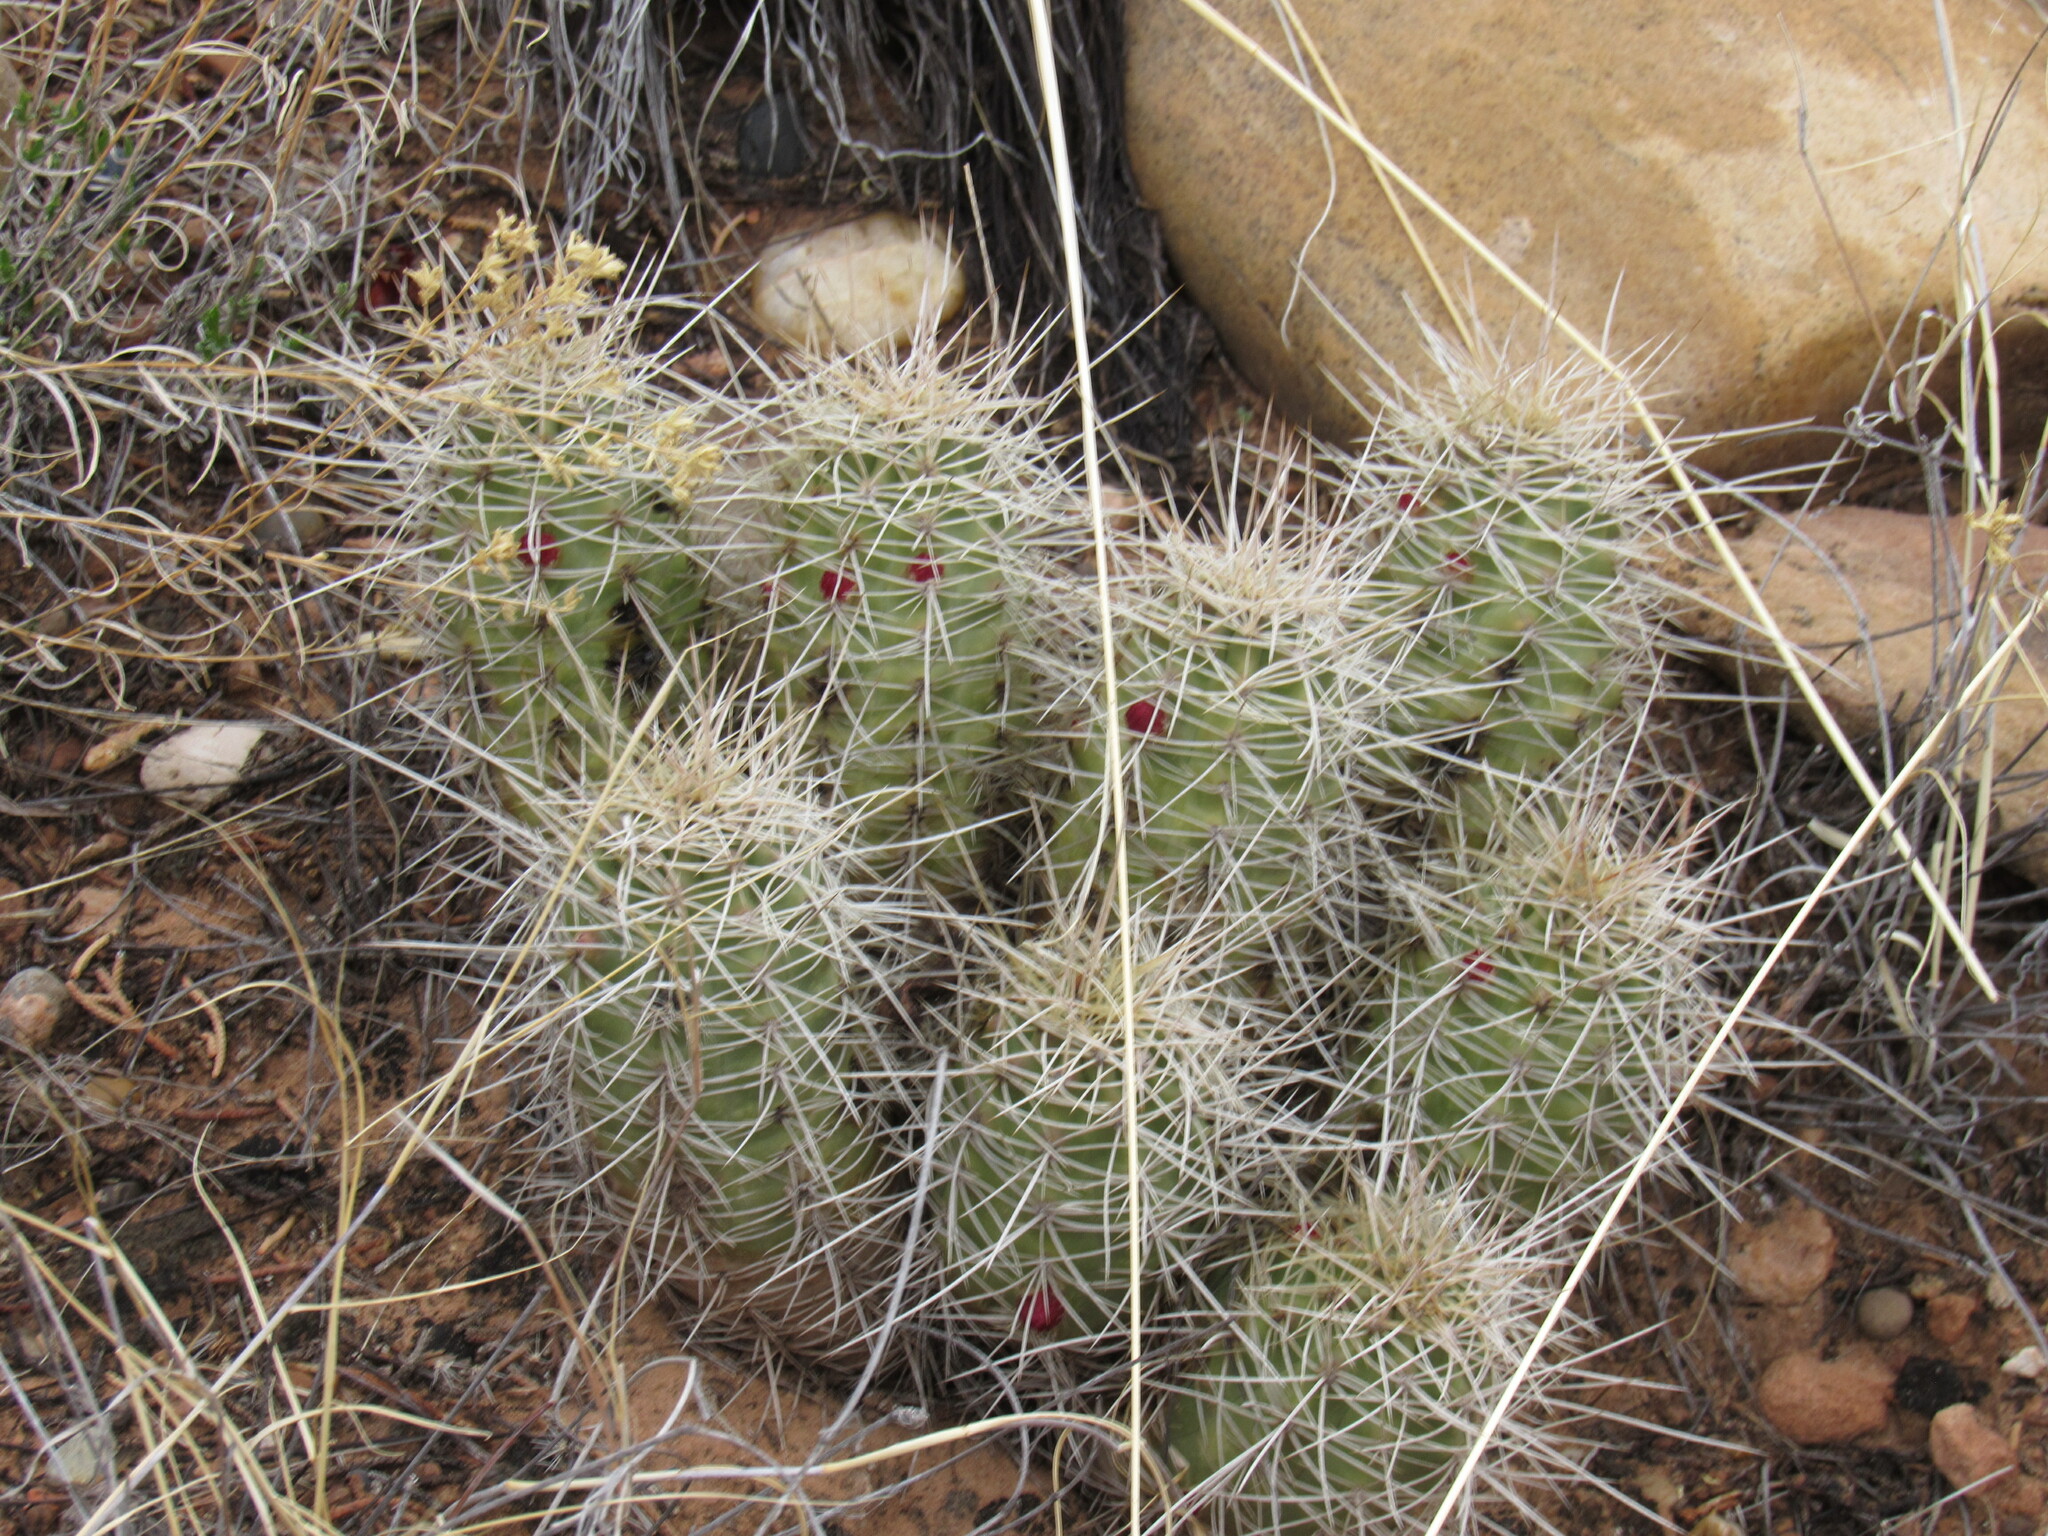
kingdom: Plantae
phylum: Tracheophyta
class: Magnoliopsida
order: Caryophyllales
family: Cactaceae
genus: Echinocereus
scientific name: Echinocereus triglochidiatus
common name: Claretcup hedgehog
